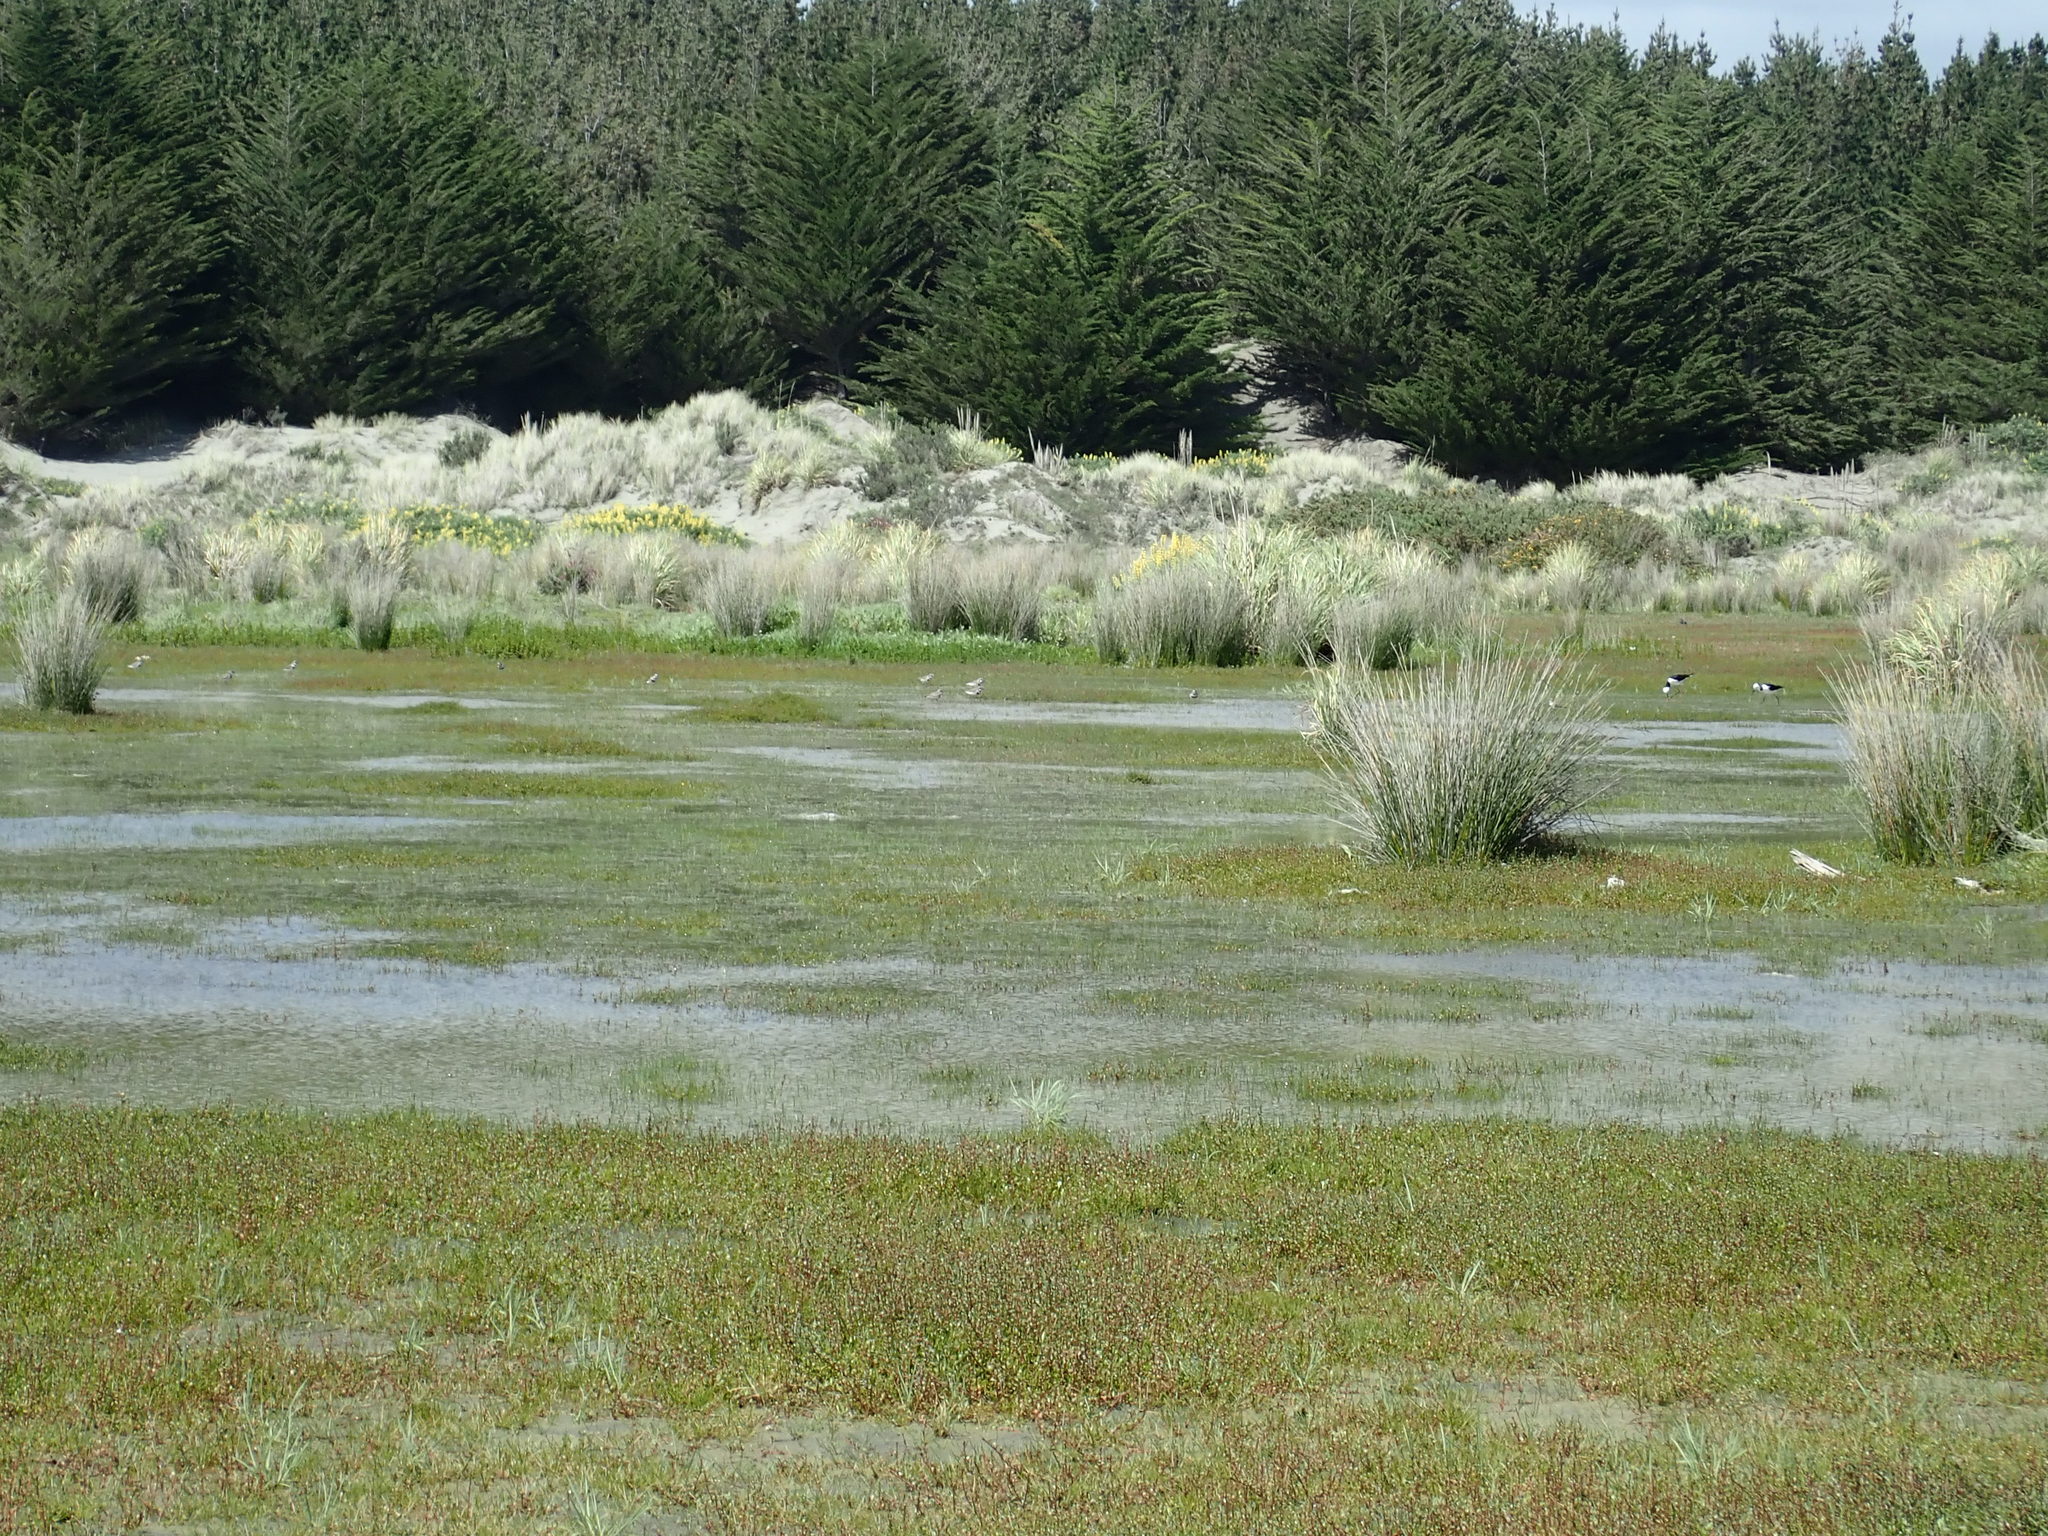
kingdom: Animalia
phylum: Chordata
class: Aves
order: Charadriiformes
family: Charadriidae
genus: Anarhynchus
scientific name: Anarhynchus
